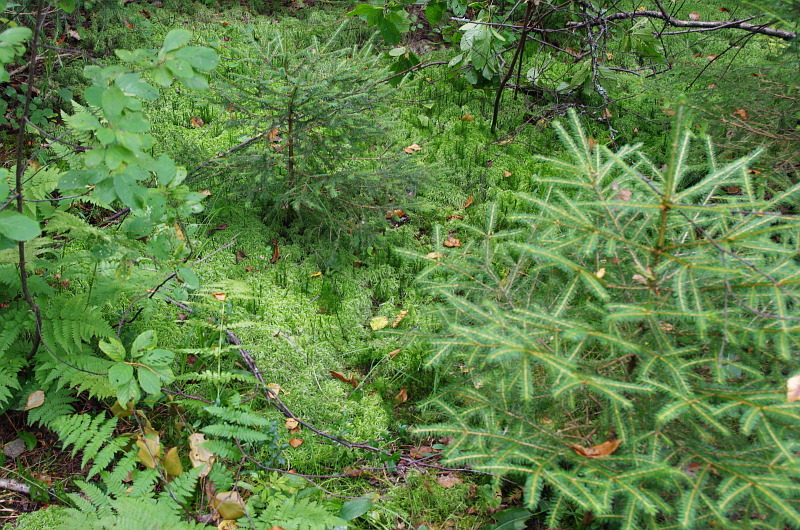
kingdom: Plantae
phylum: Tracheophyta
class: Pinopsida
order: Pinales
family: Pinaceae
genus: Picea
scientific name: Picea abies
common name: Norway spruce
